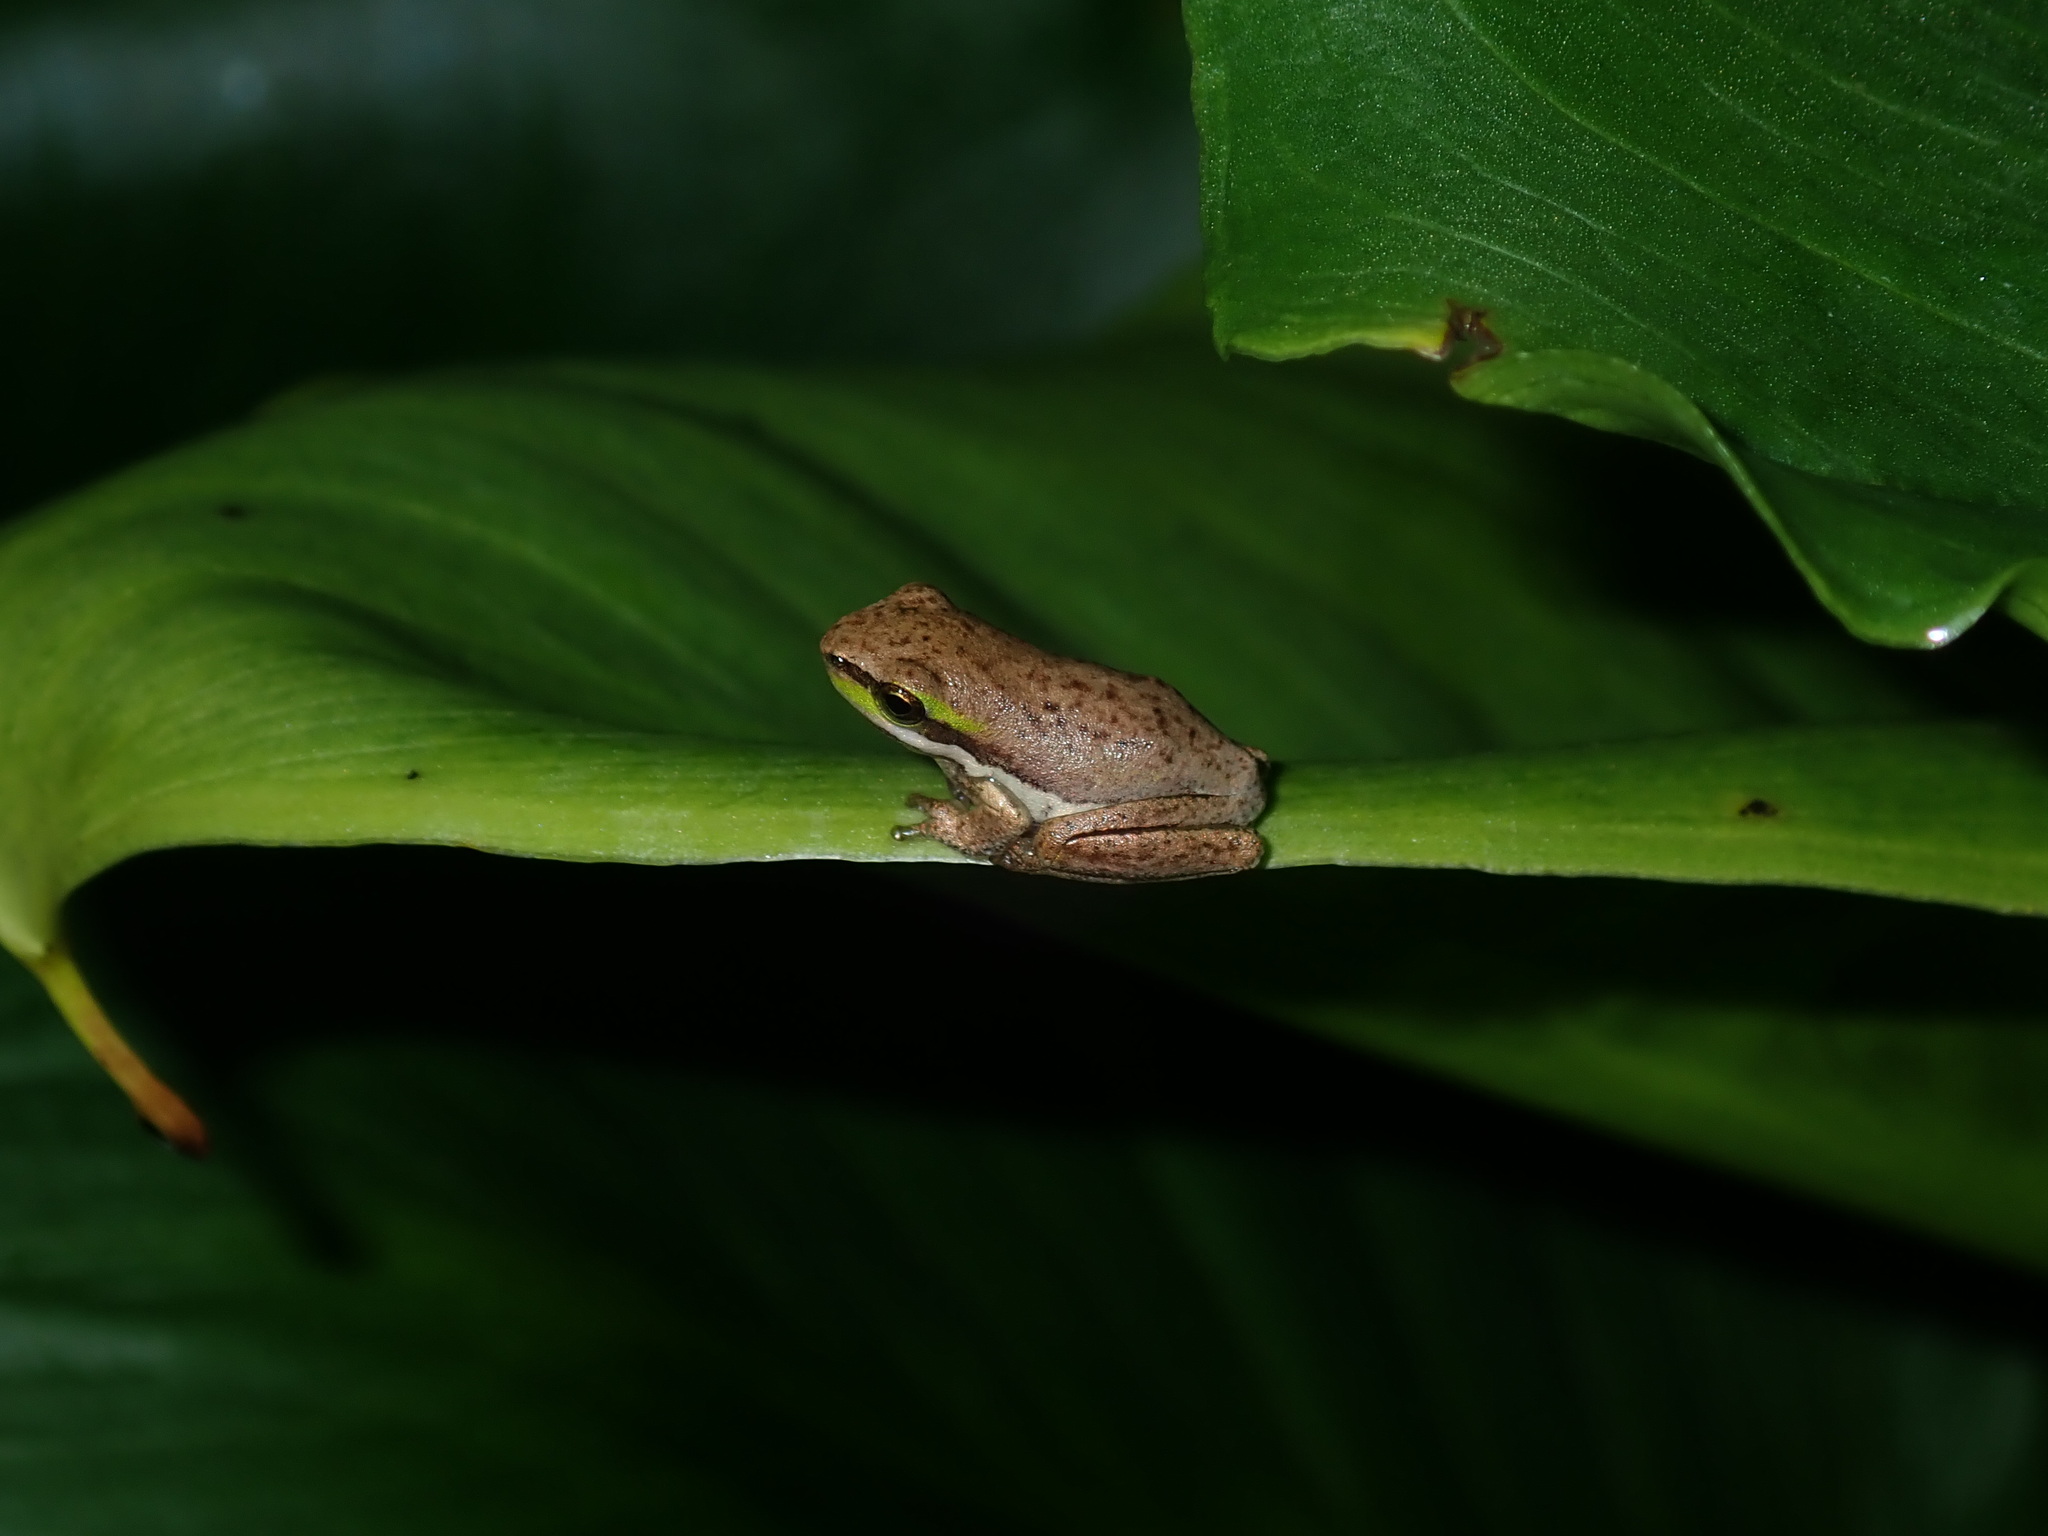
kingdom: Animalia
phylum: Chordata
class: Amphibia
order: Anura
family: Pelodryadidae
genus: Litoria
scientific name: Litoria fallax
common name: Eastern dwarf treefrog
